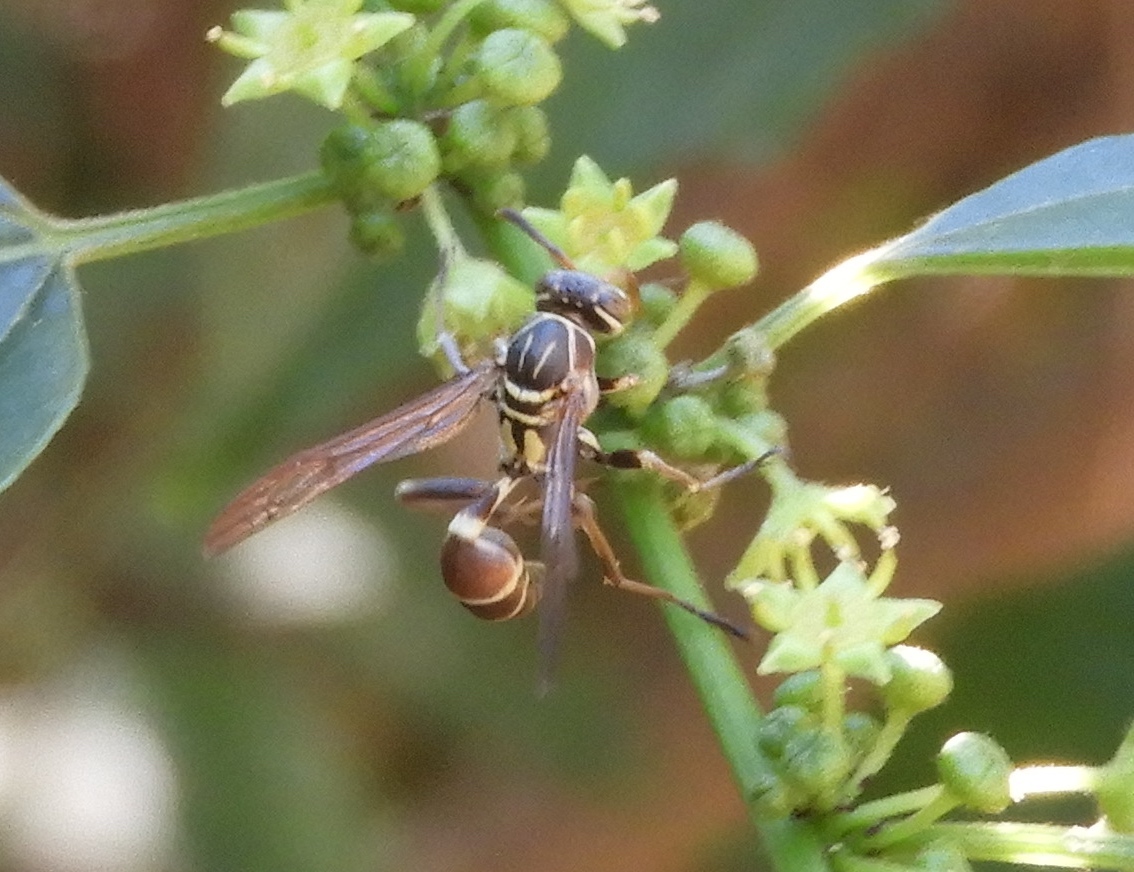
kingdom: Plantae
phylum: Tracheophyta
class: Magnoliopsida
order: Rosales
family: Rhamnaceae
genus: Colubrina
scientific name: Colubrina triflora
